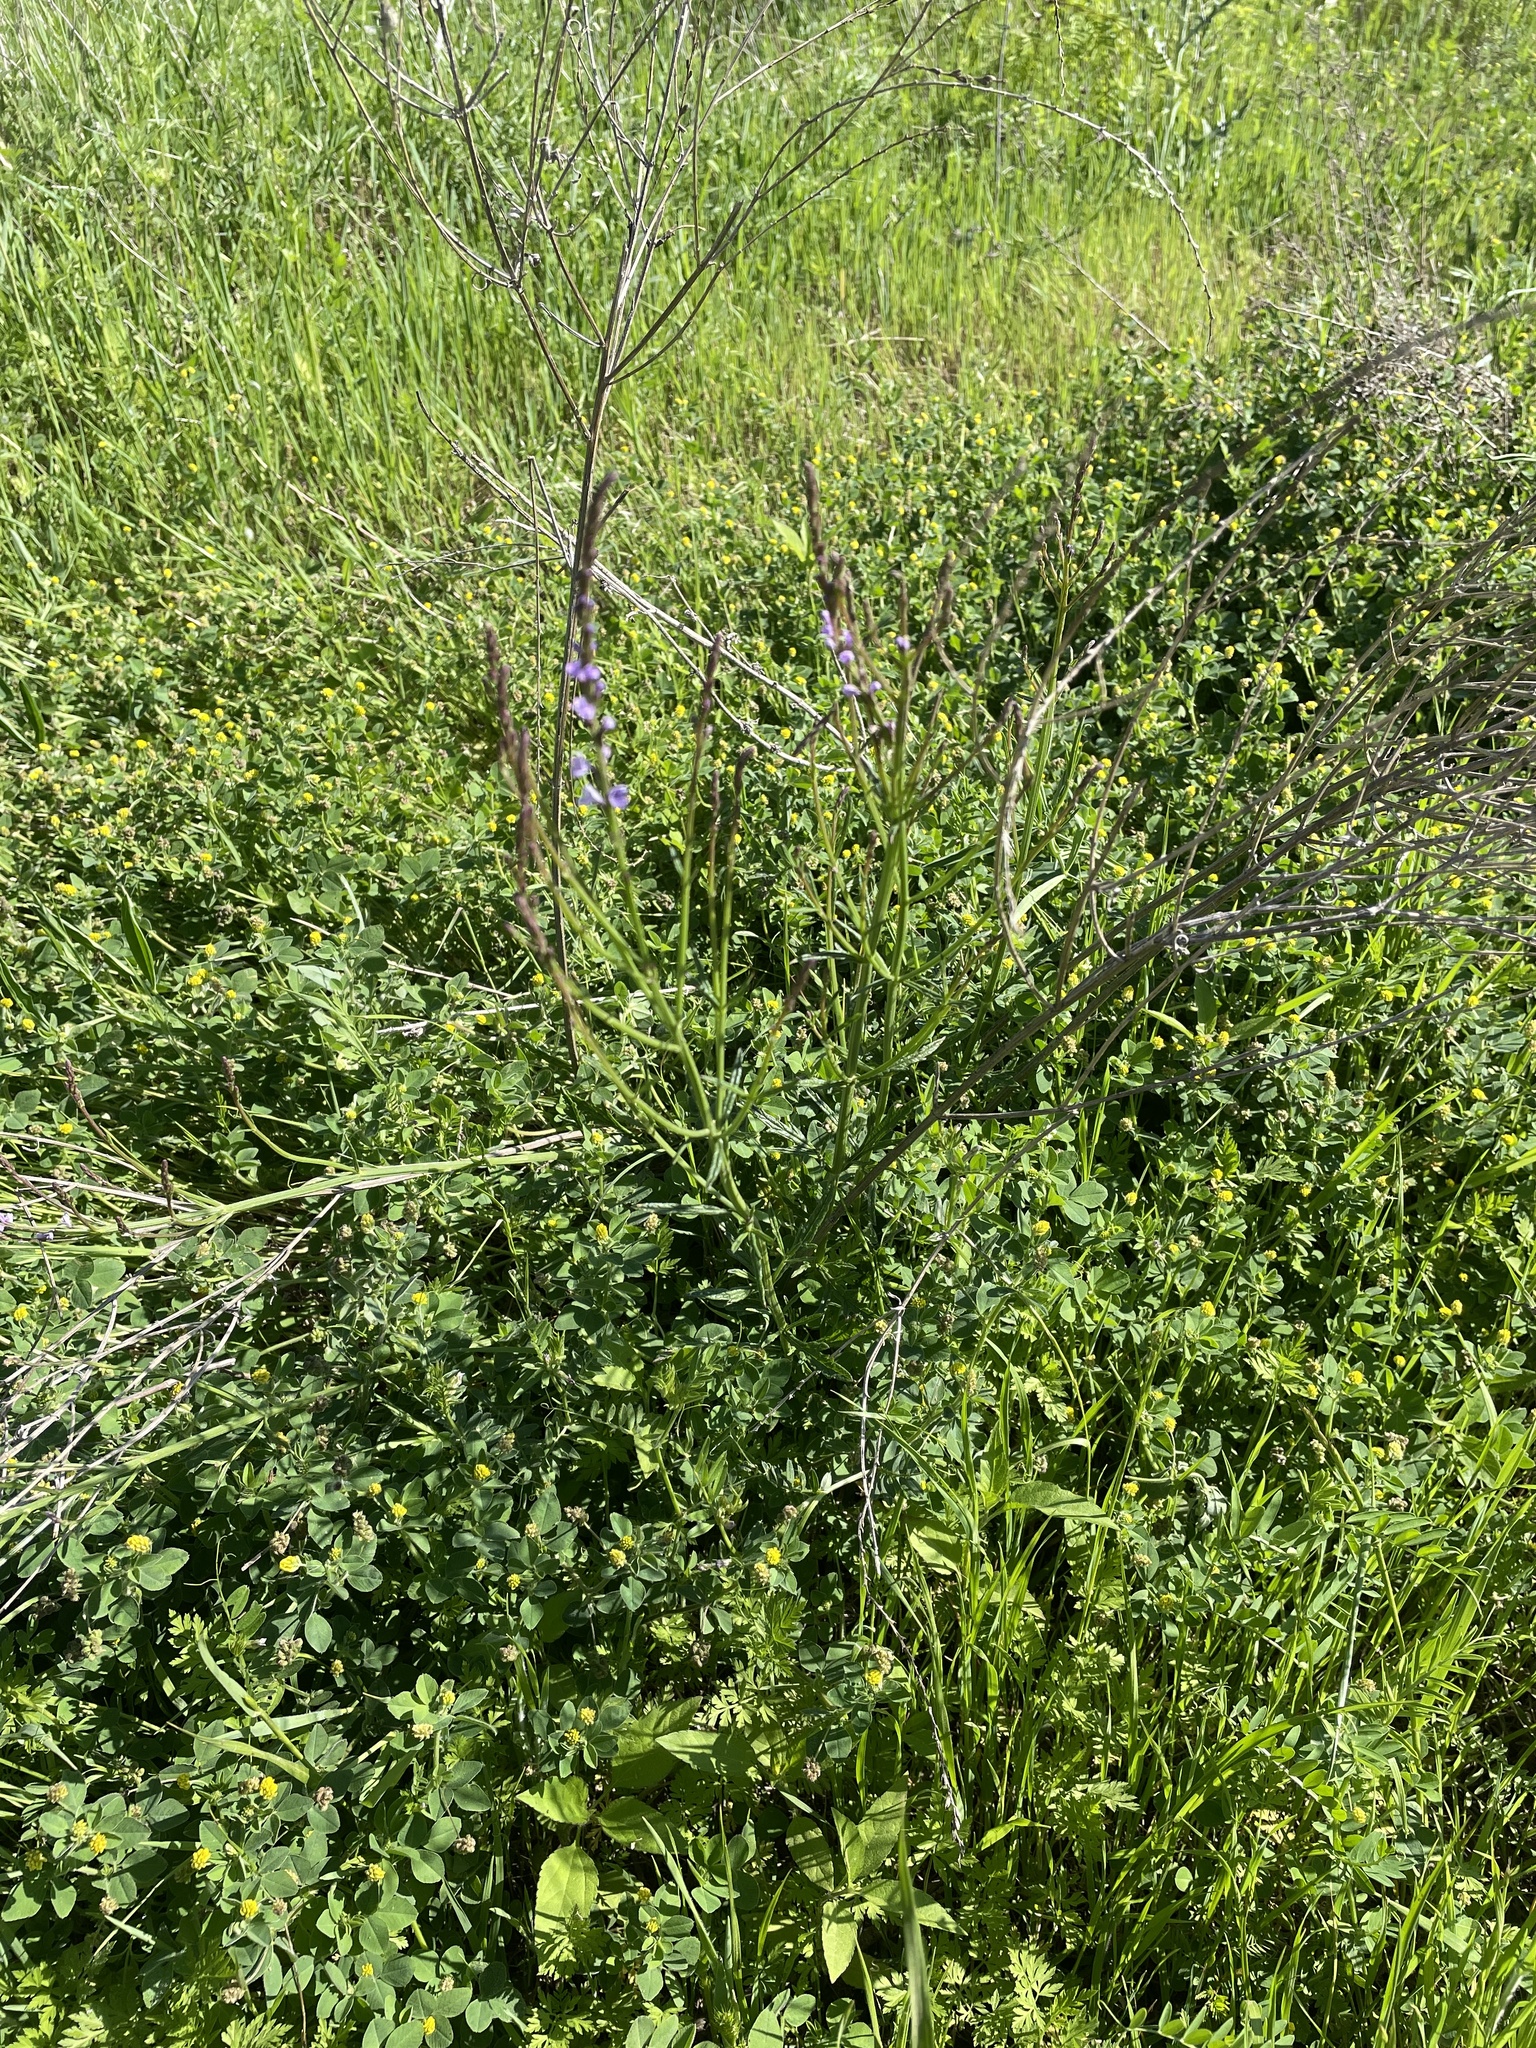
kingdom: Plantae
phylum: Tracheophyta
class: Magnoliopsida
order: Lamiales
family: Verbenaceae
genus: Verbena
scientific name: Verbena halei
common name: Texas vervain
